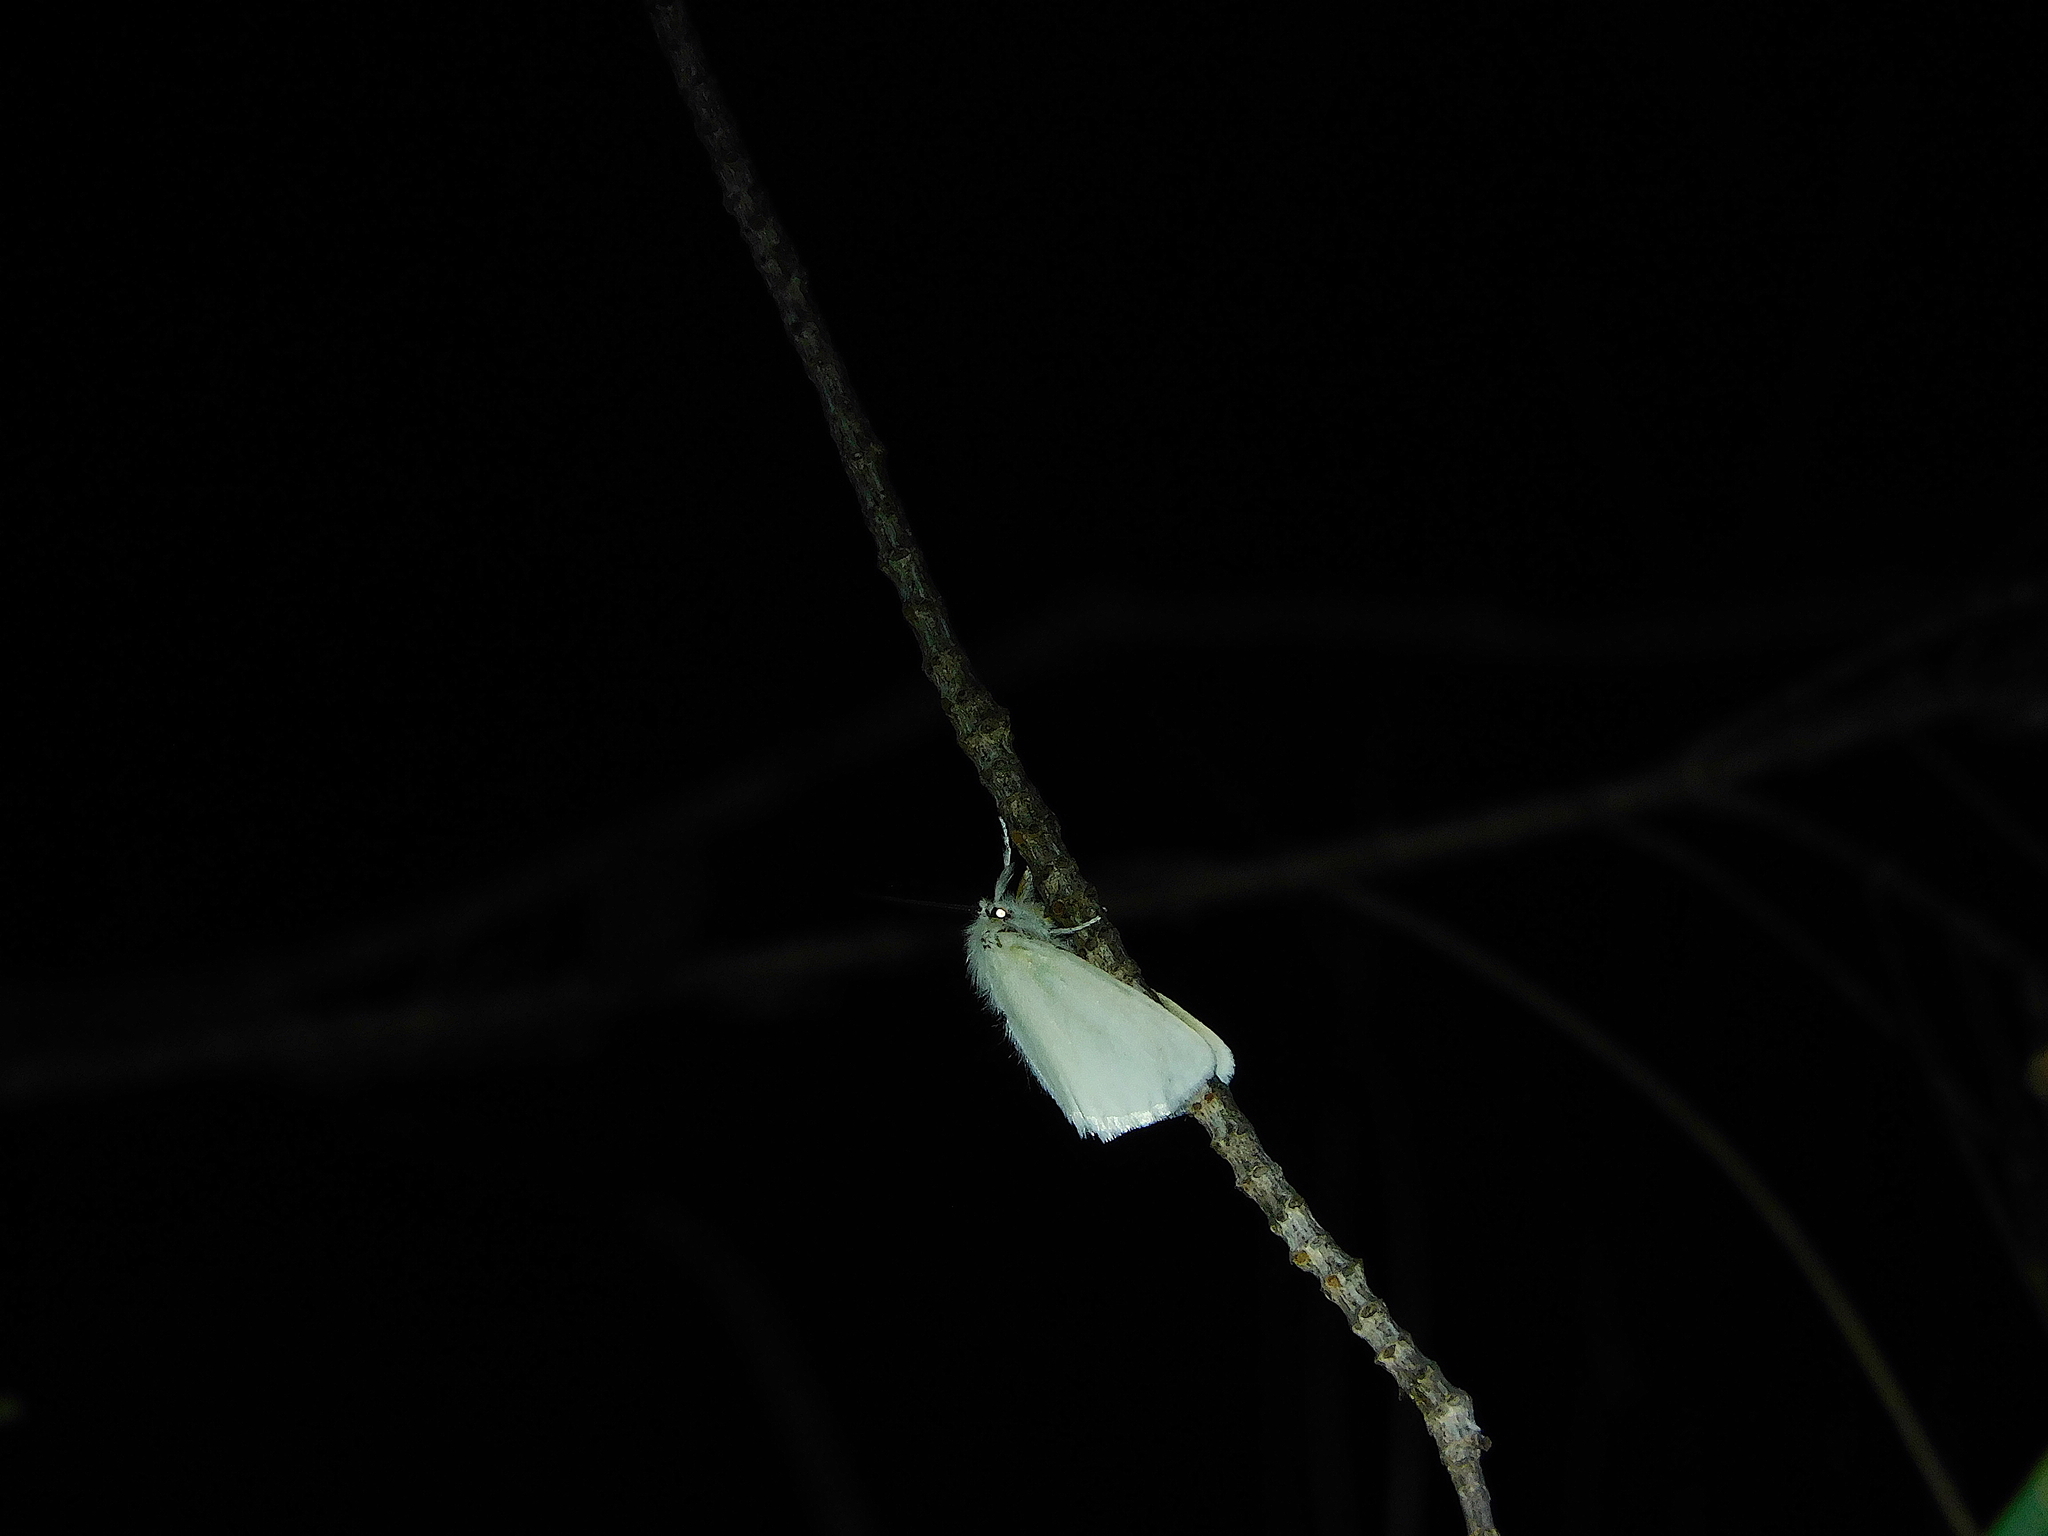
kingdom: Animalia
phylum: Arthropoda
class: Insecta
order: Lepidoptera
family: Erebidae
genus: Acyphas
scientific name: Acyphas semiochrea
